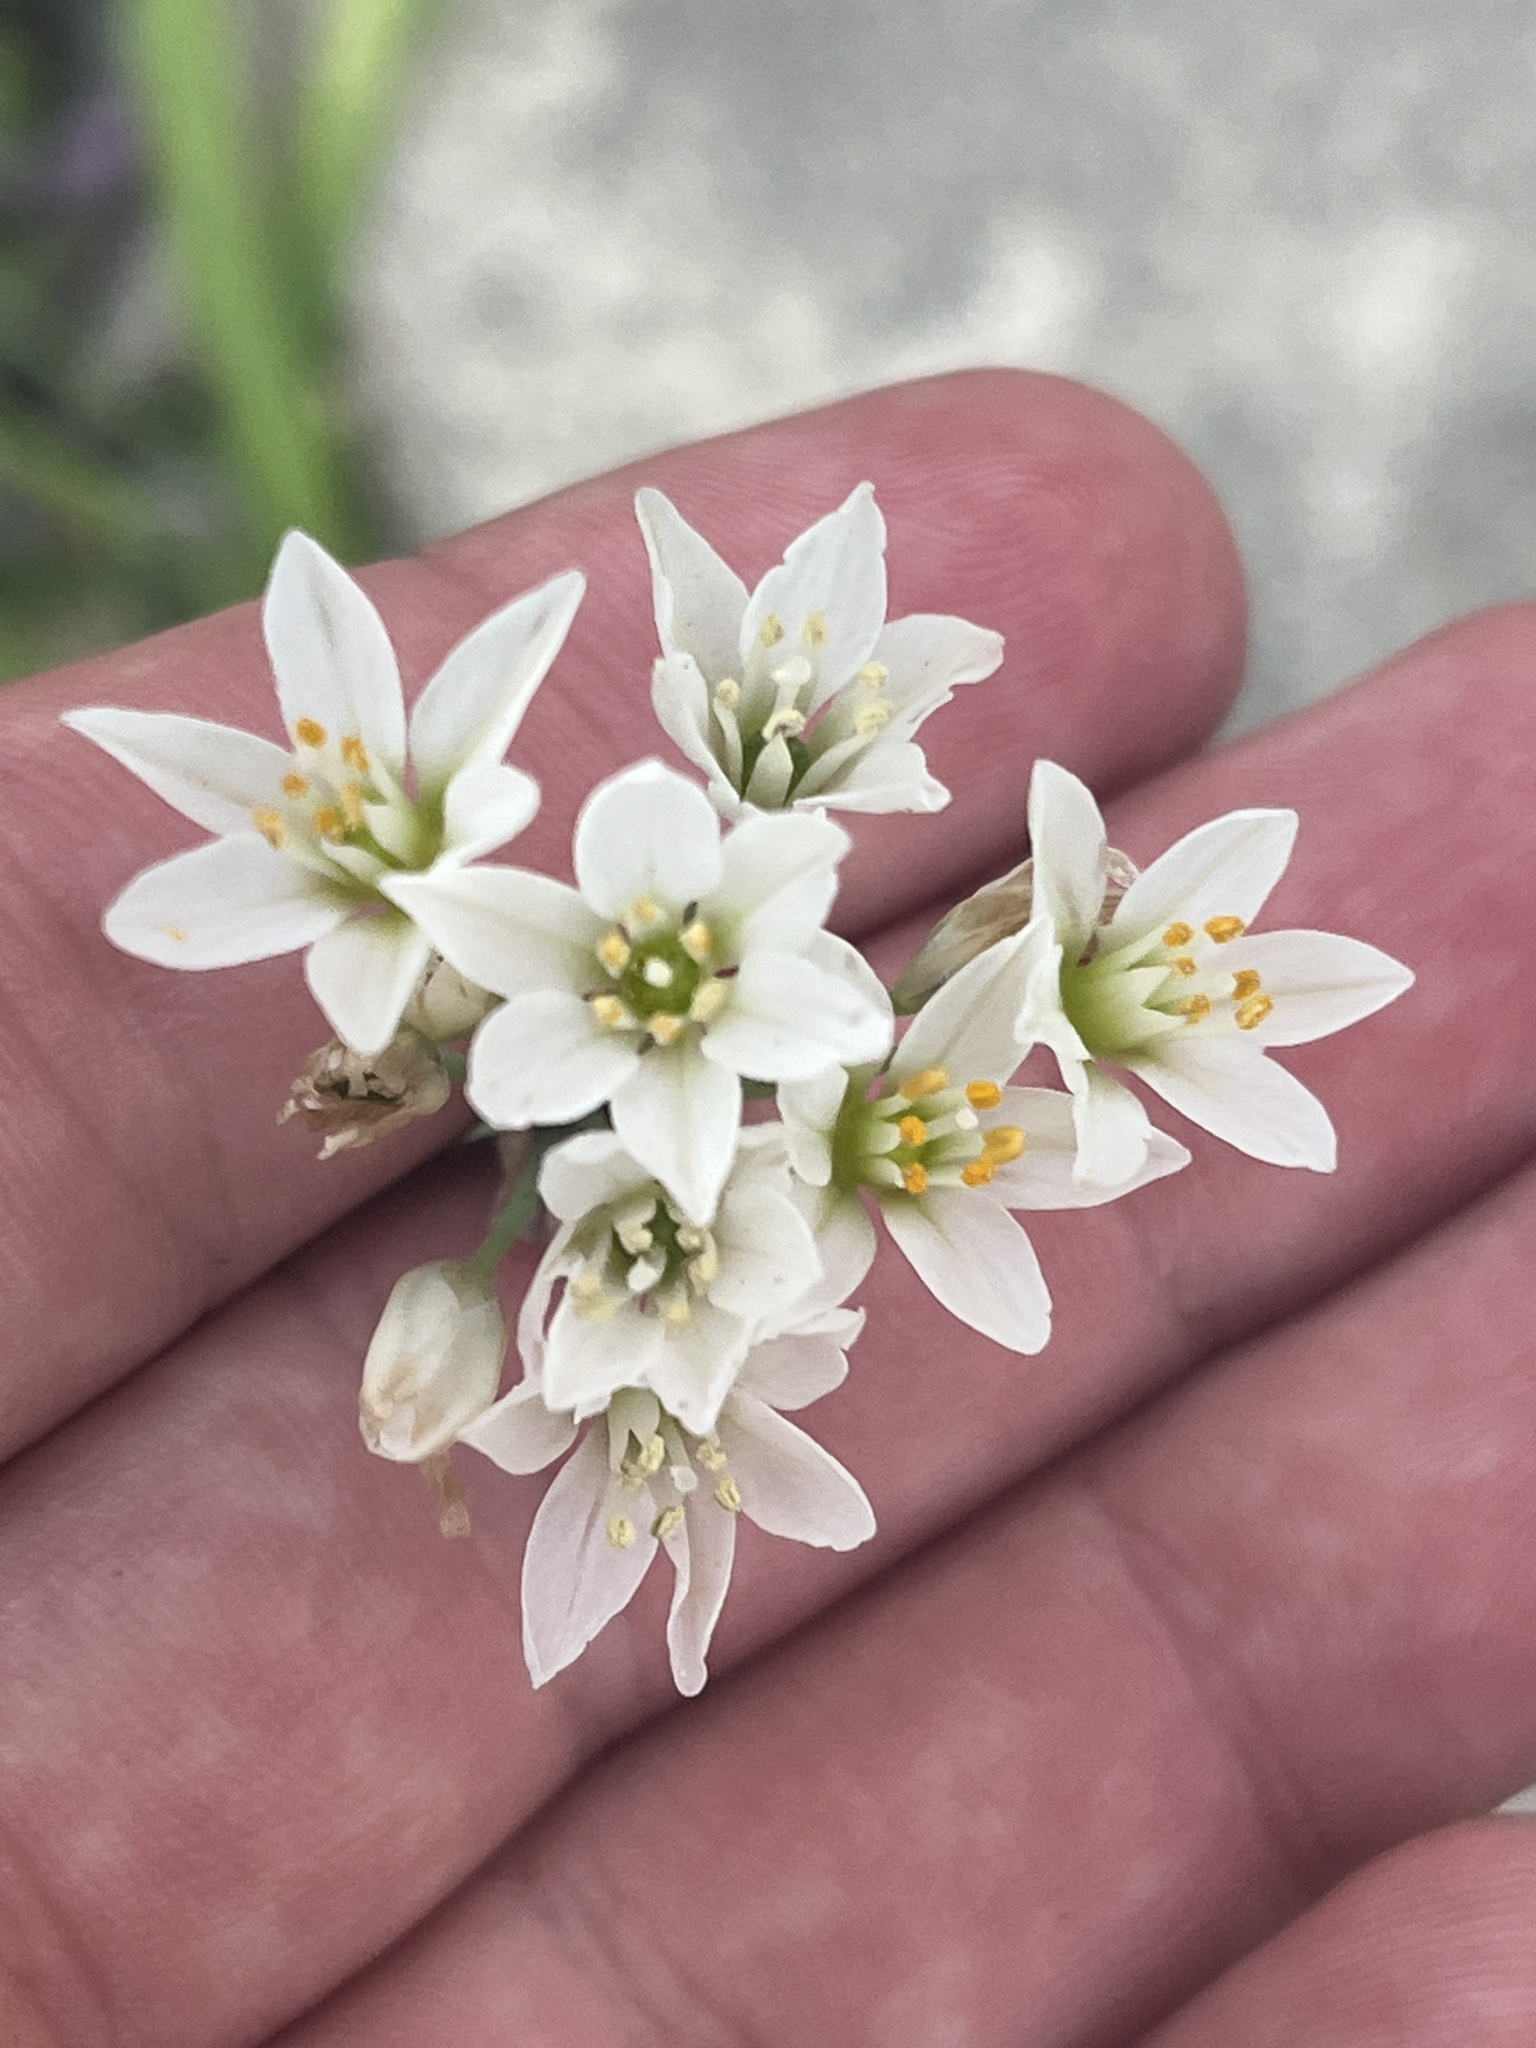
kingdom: Plantae
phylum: Tracheophyta
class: Liliopsida
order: Asparagales
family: Amaryllidaceae
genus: Nothoscordum
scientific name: Nothoscordum gracile
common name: Slender false garlic
